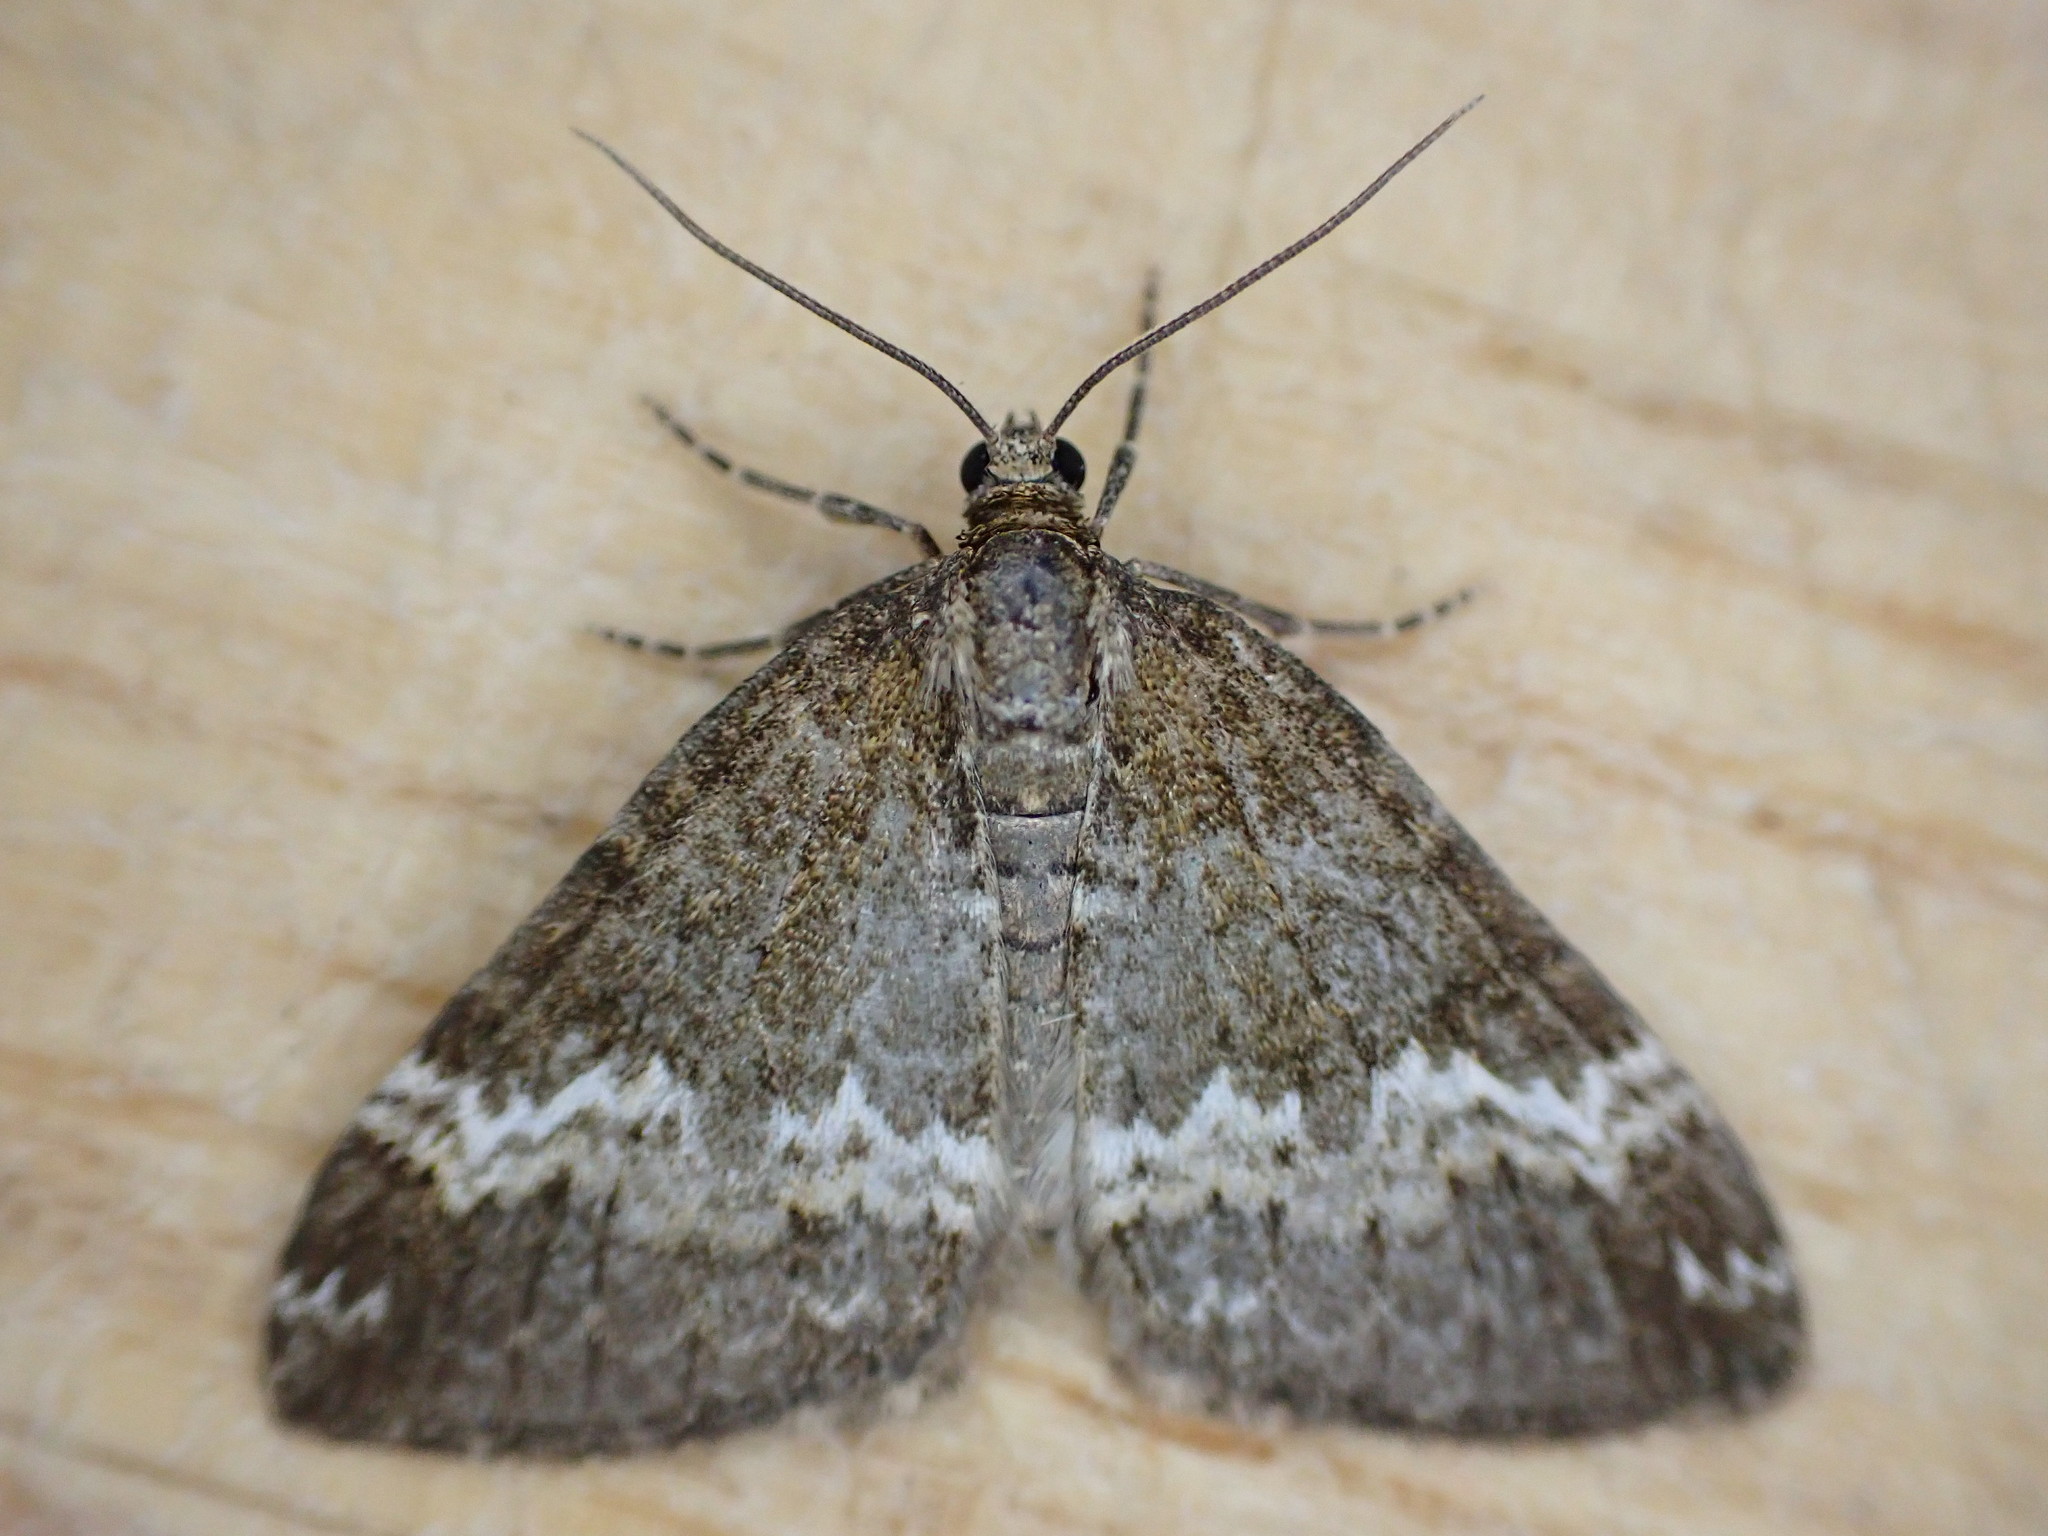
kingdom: Animalia
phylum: Arthropoda
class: Insecta
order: Lepidoptera
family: Geometridae
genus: Perizoma
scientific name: Perizoma alchemillata
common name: Small rivulet
